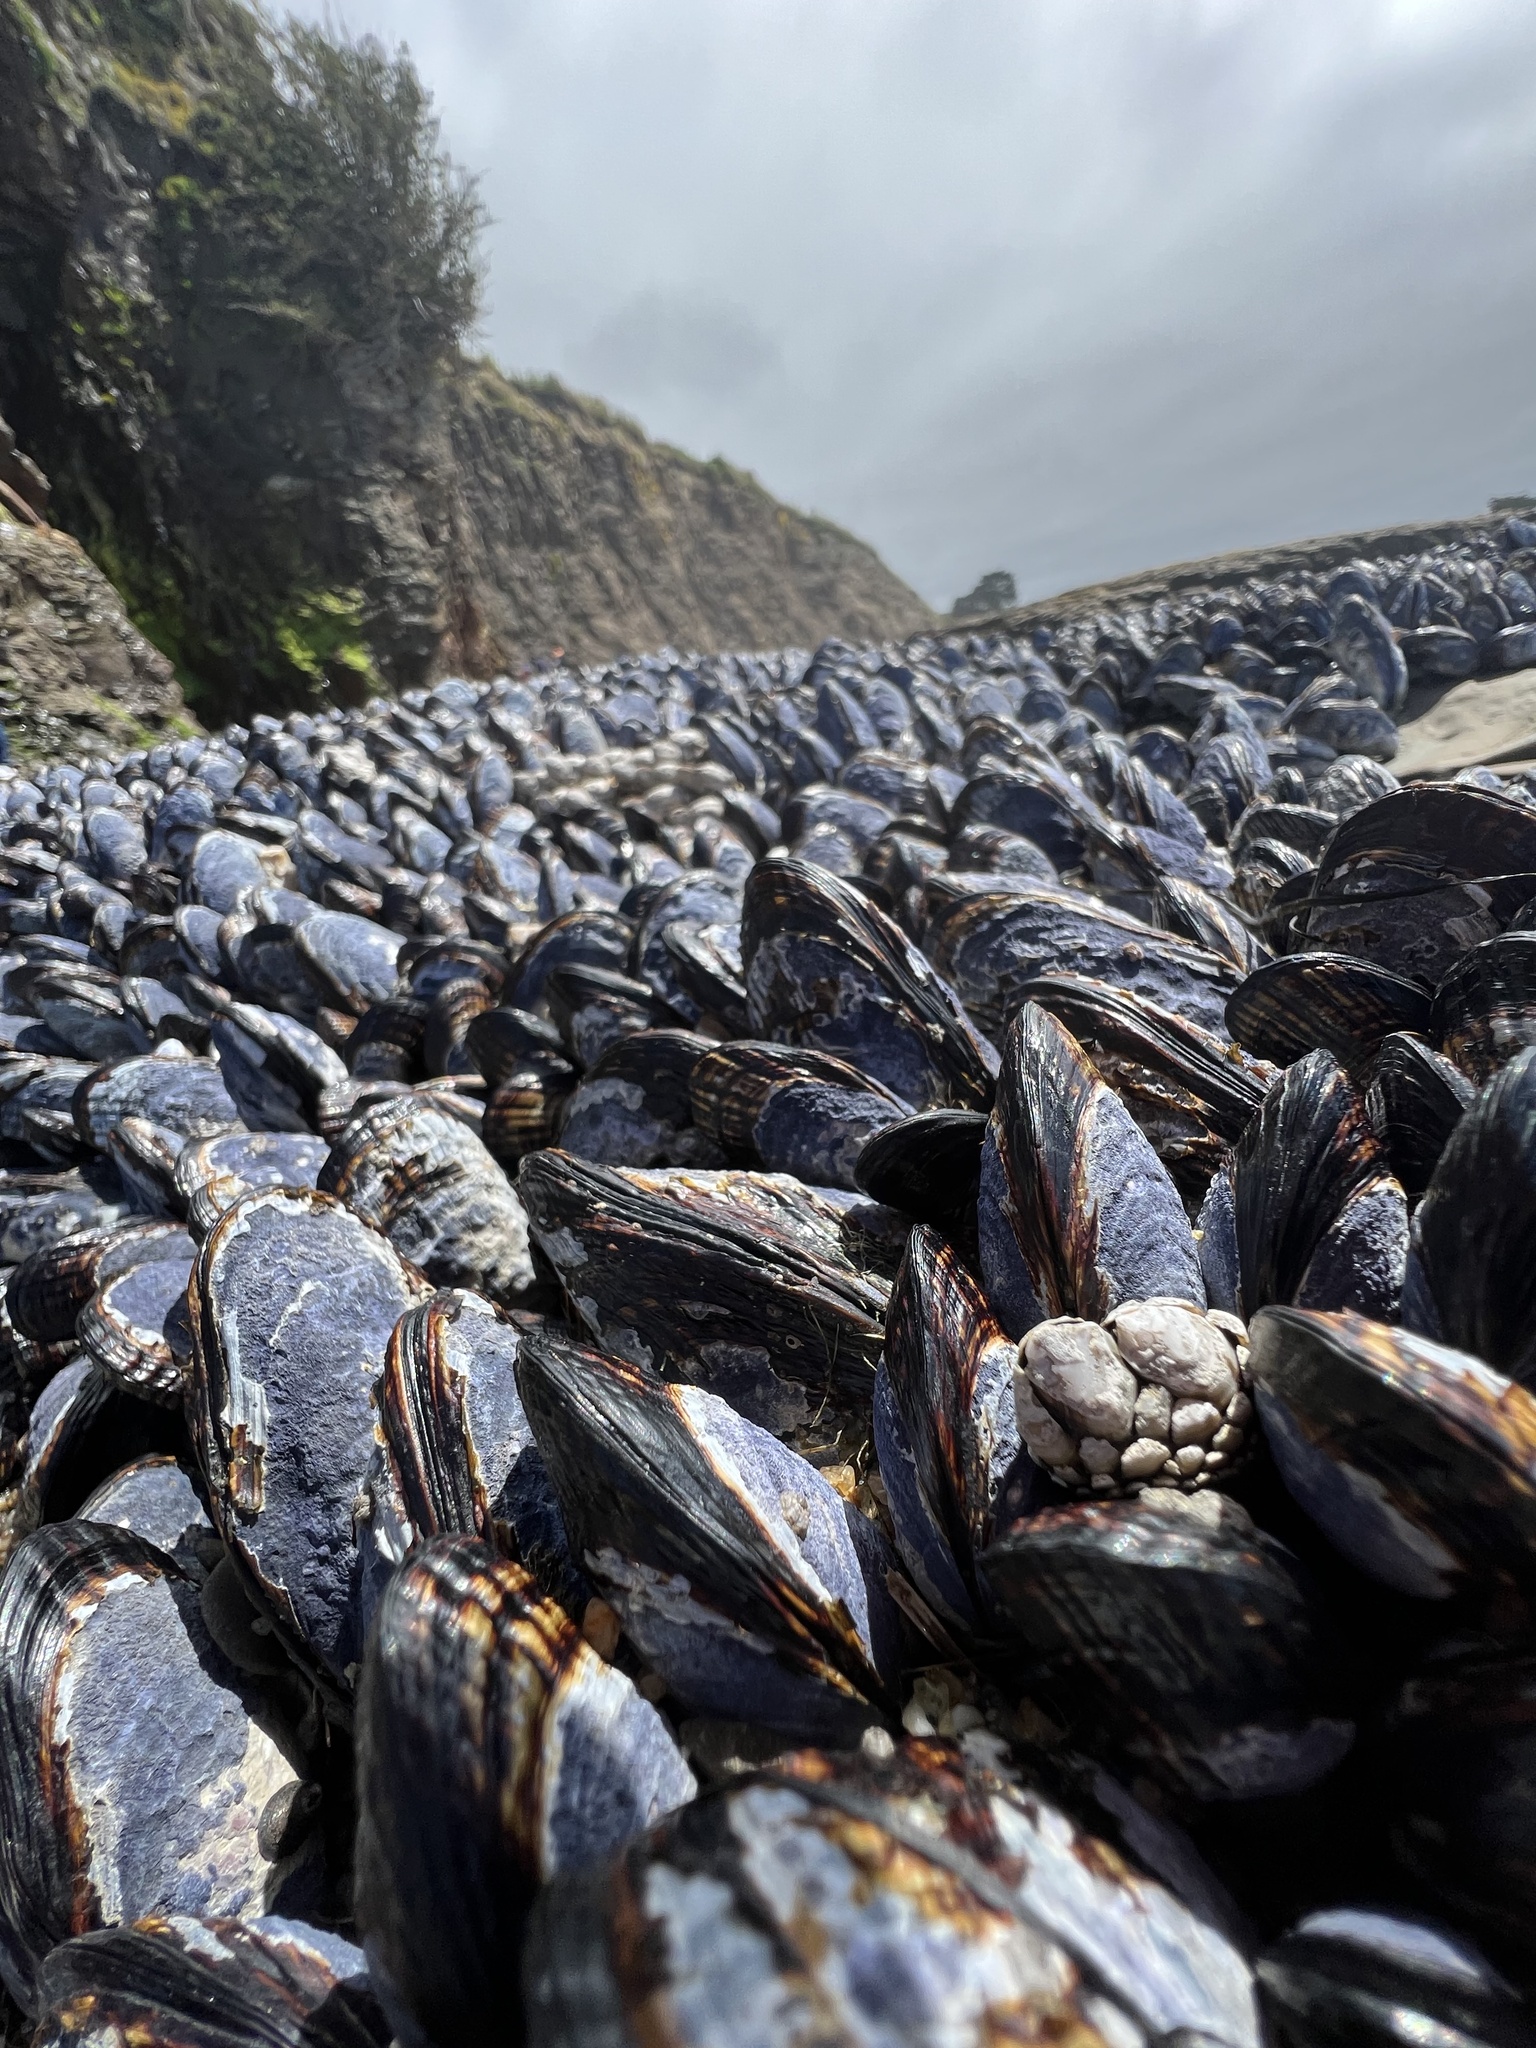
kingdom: Animalia
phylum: Mollusca
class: Bivalvia
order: Mytilida
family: Mytilidae
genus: Mytilus
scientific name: Mytilus californianus
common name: California mussel
